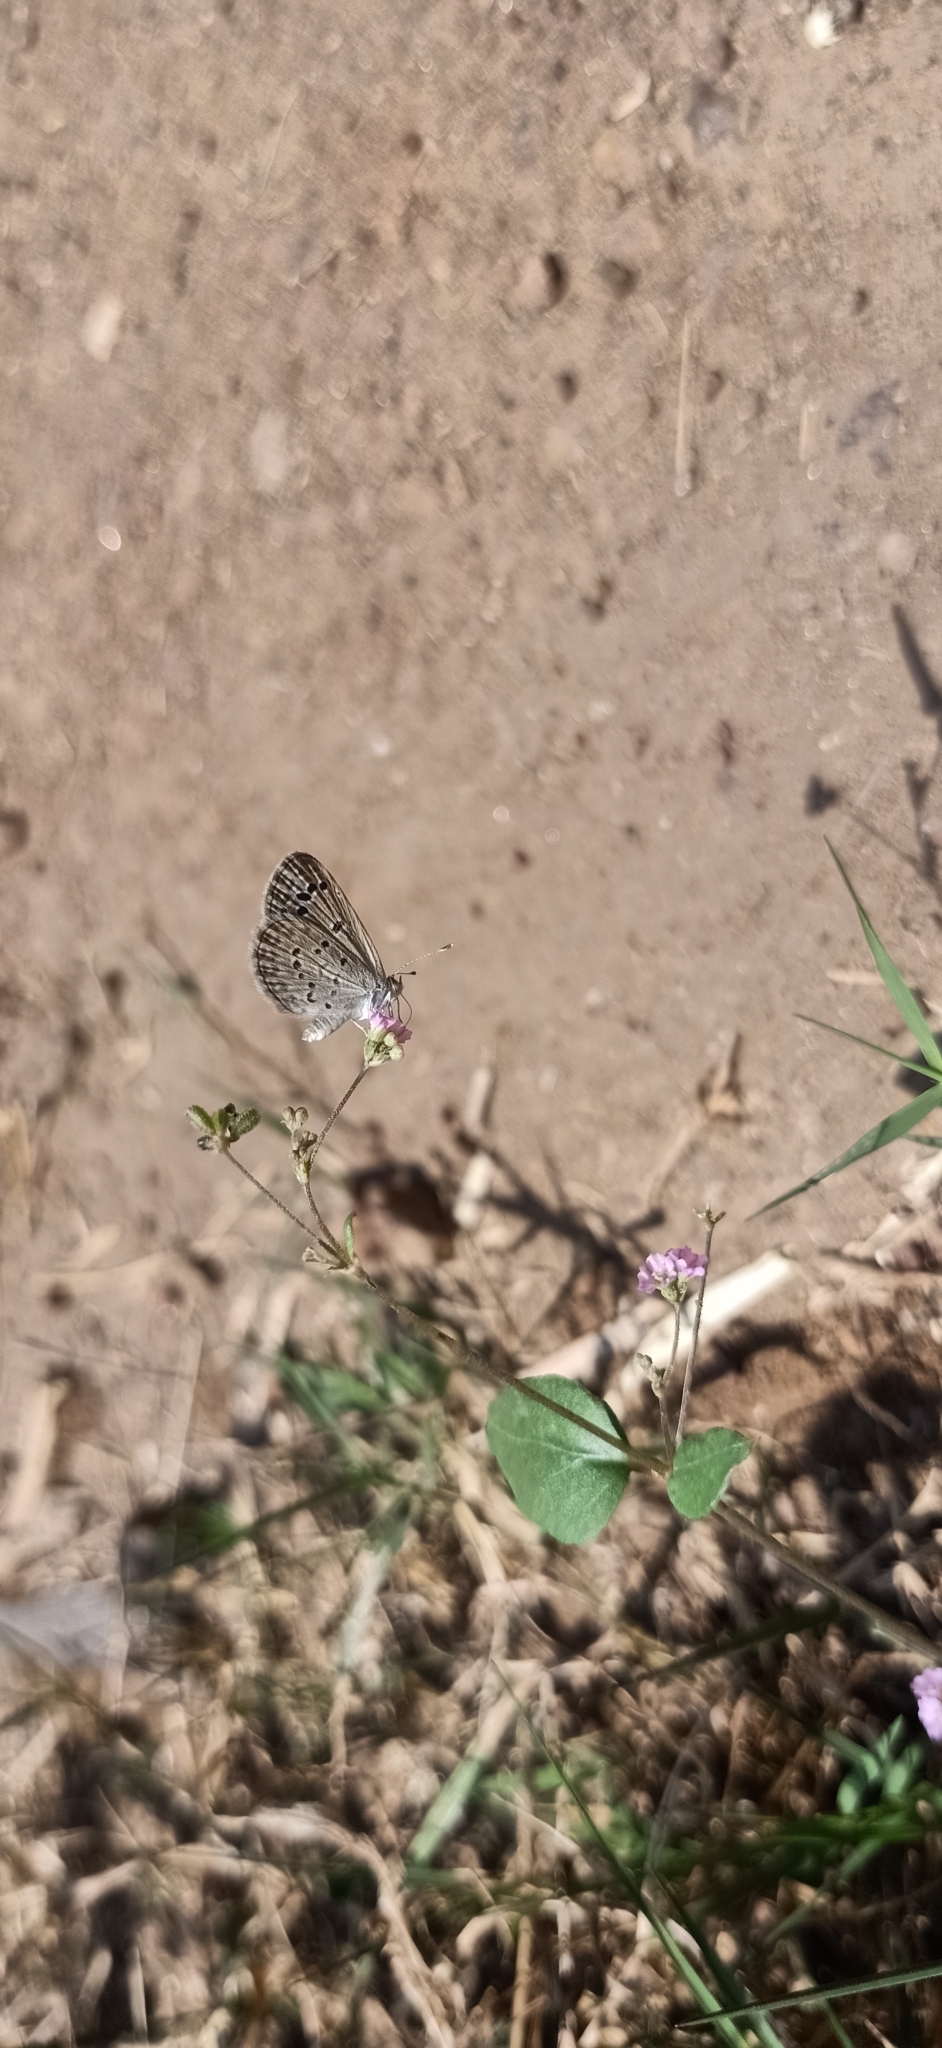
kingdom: Animalia
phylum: Arthropoda
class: Insecta
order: Lepidoptera
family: Lycaenidae
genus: Zizina
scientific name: Zizina otis
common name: Lesser grass blue
